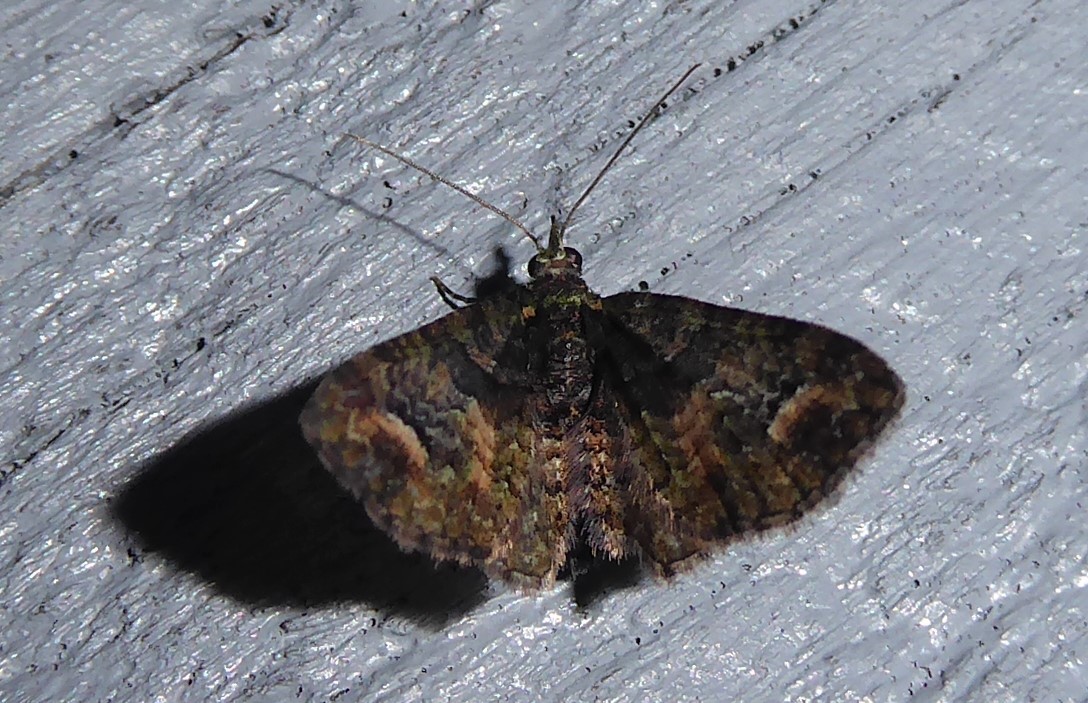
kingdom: Animalia
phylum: Arthropoda
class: Insecta
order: Lepidoptera
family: Geometridae
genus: Pasiphilodes
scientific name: Pasiphilodes testulata
